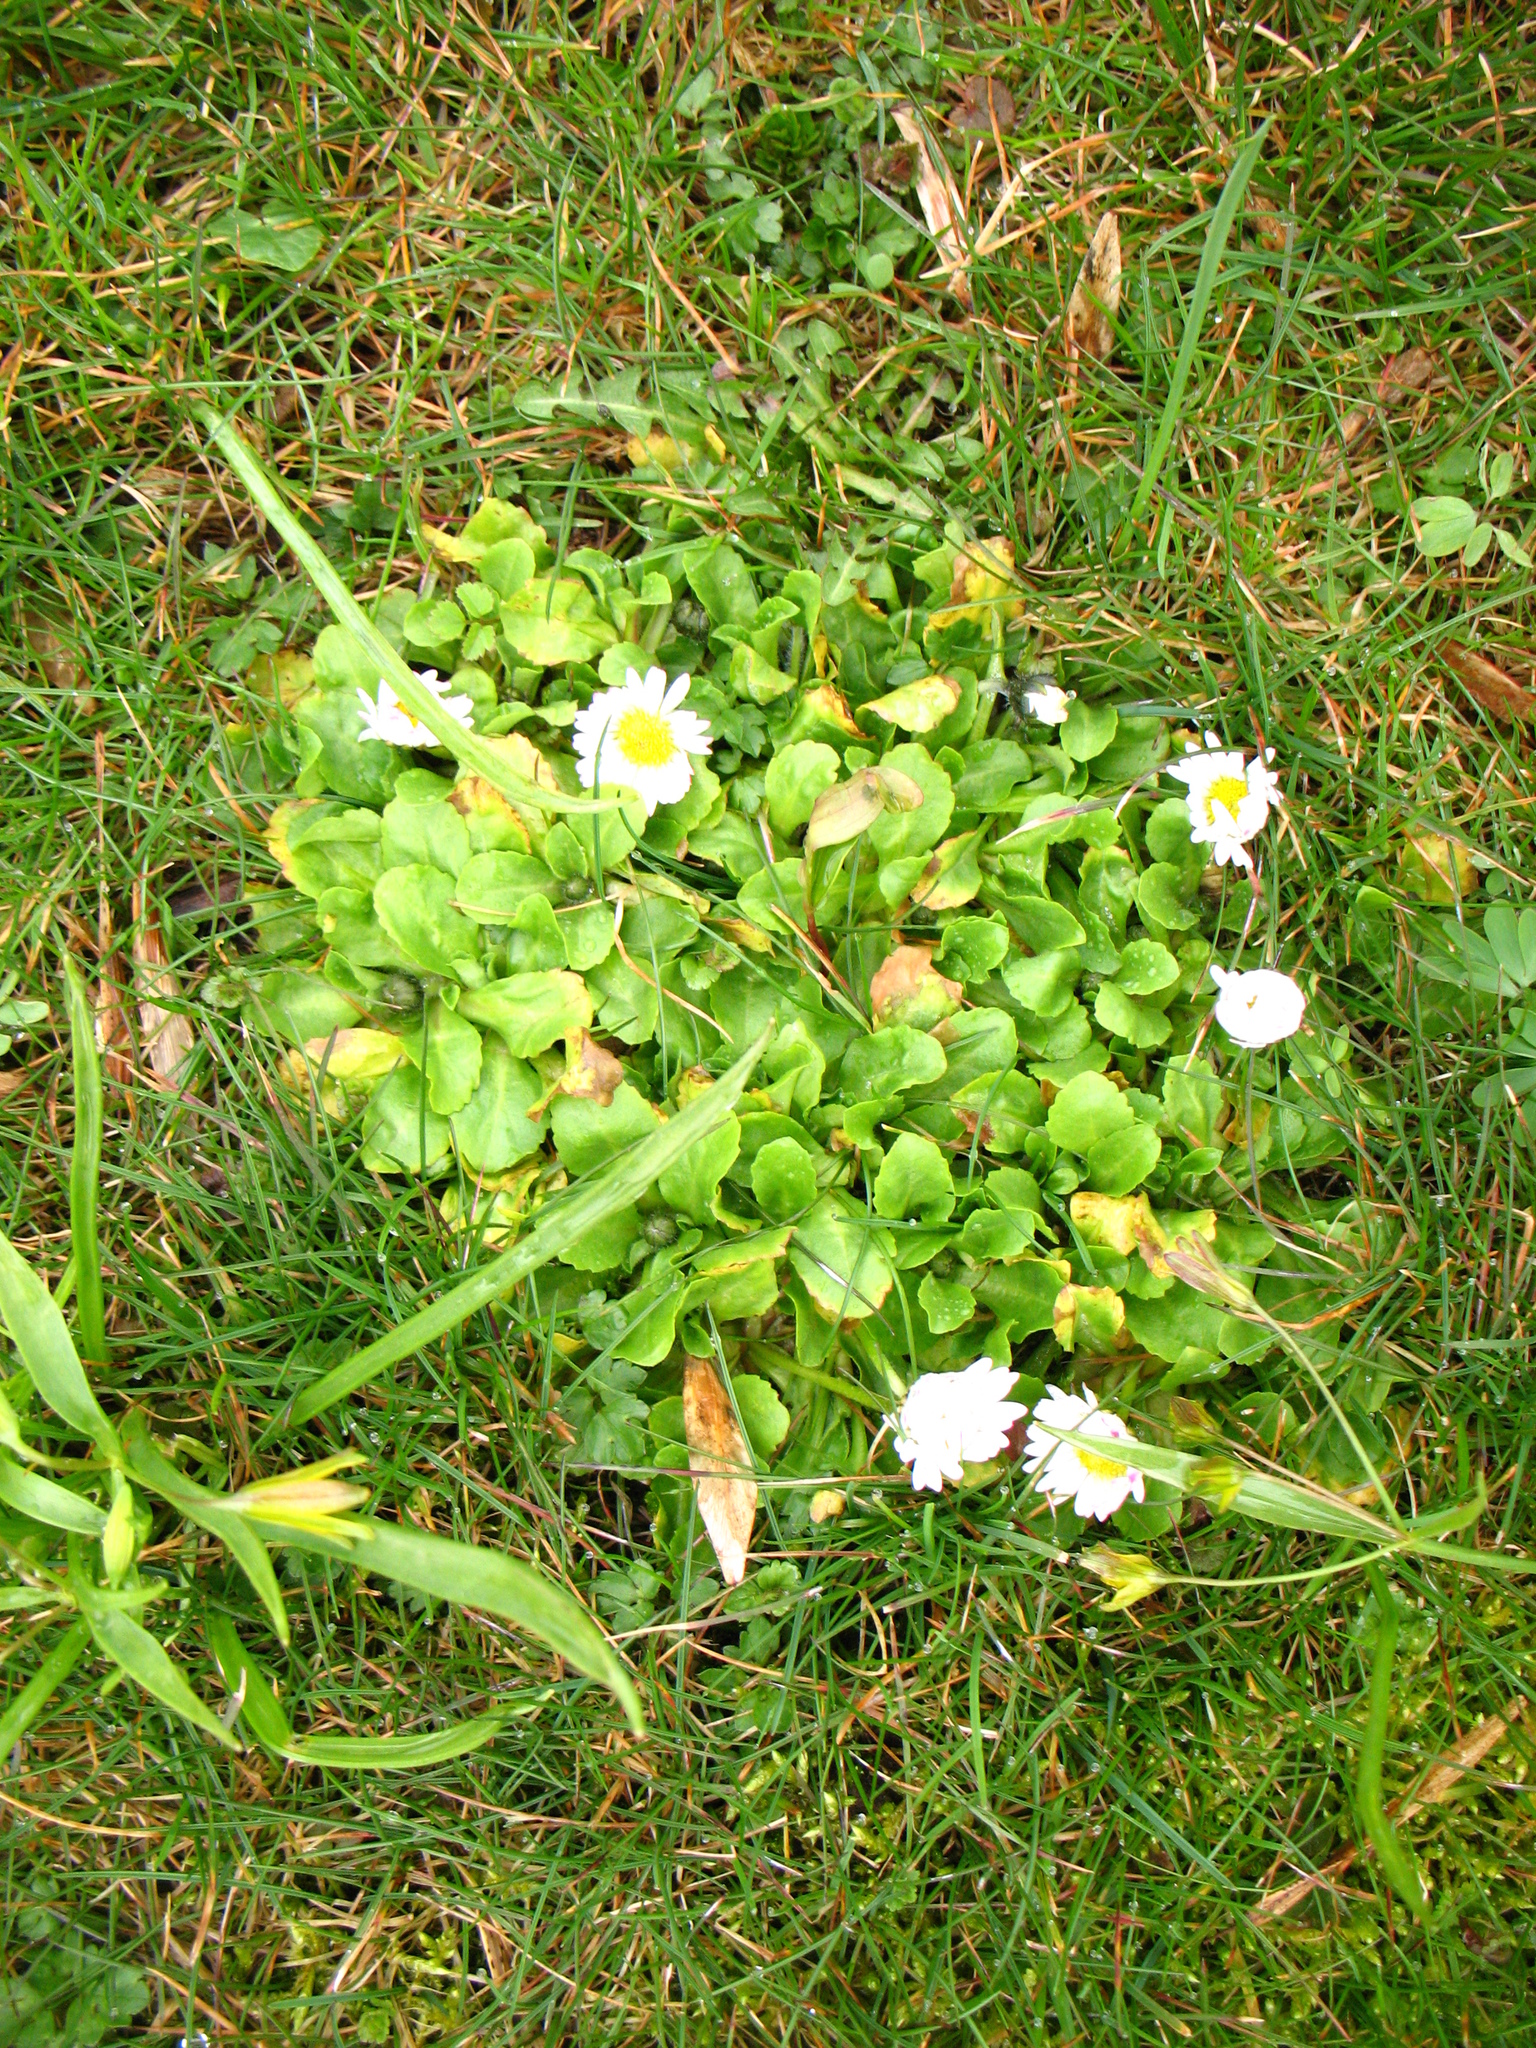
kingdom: Plantae
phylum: Tracheophyta
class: Magnoliopsida
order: Asterales
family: Asteraceae
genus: Bellis
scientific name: Bellis perennis
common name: Lawndaisy
